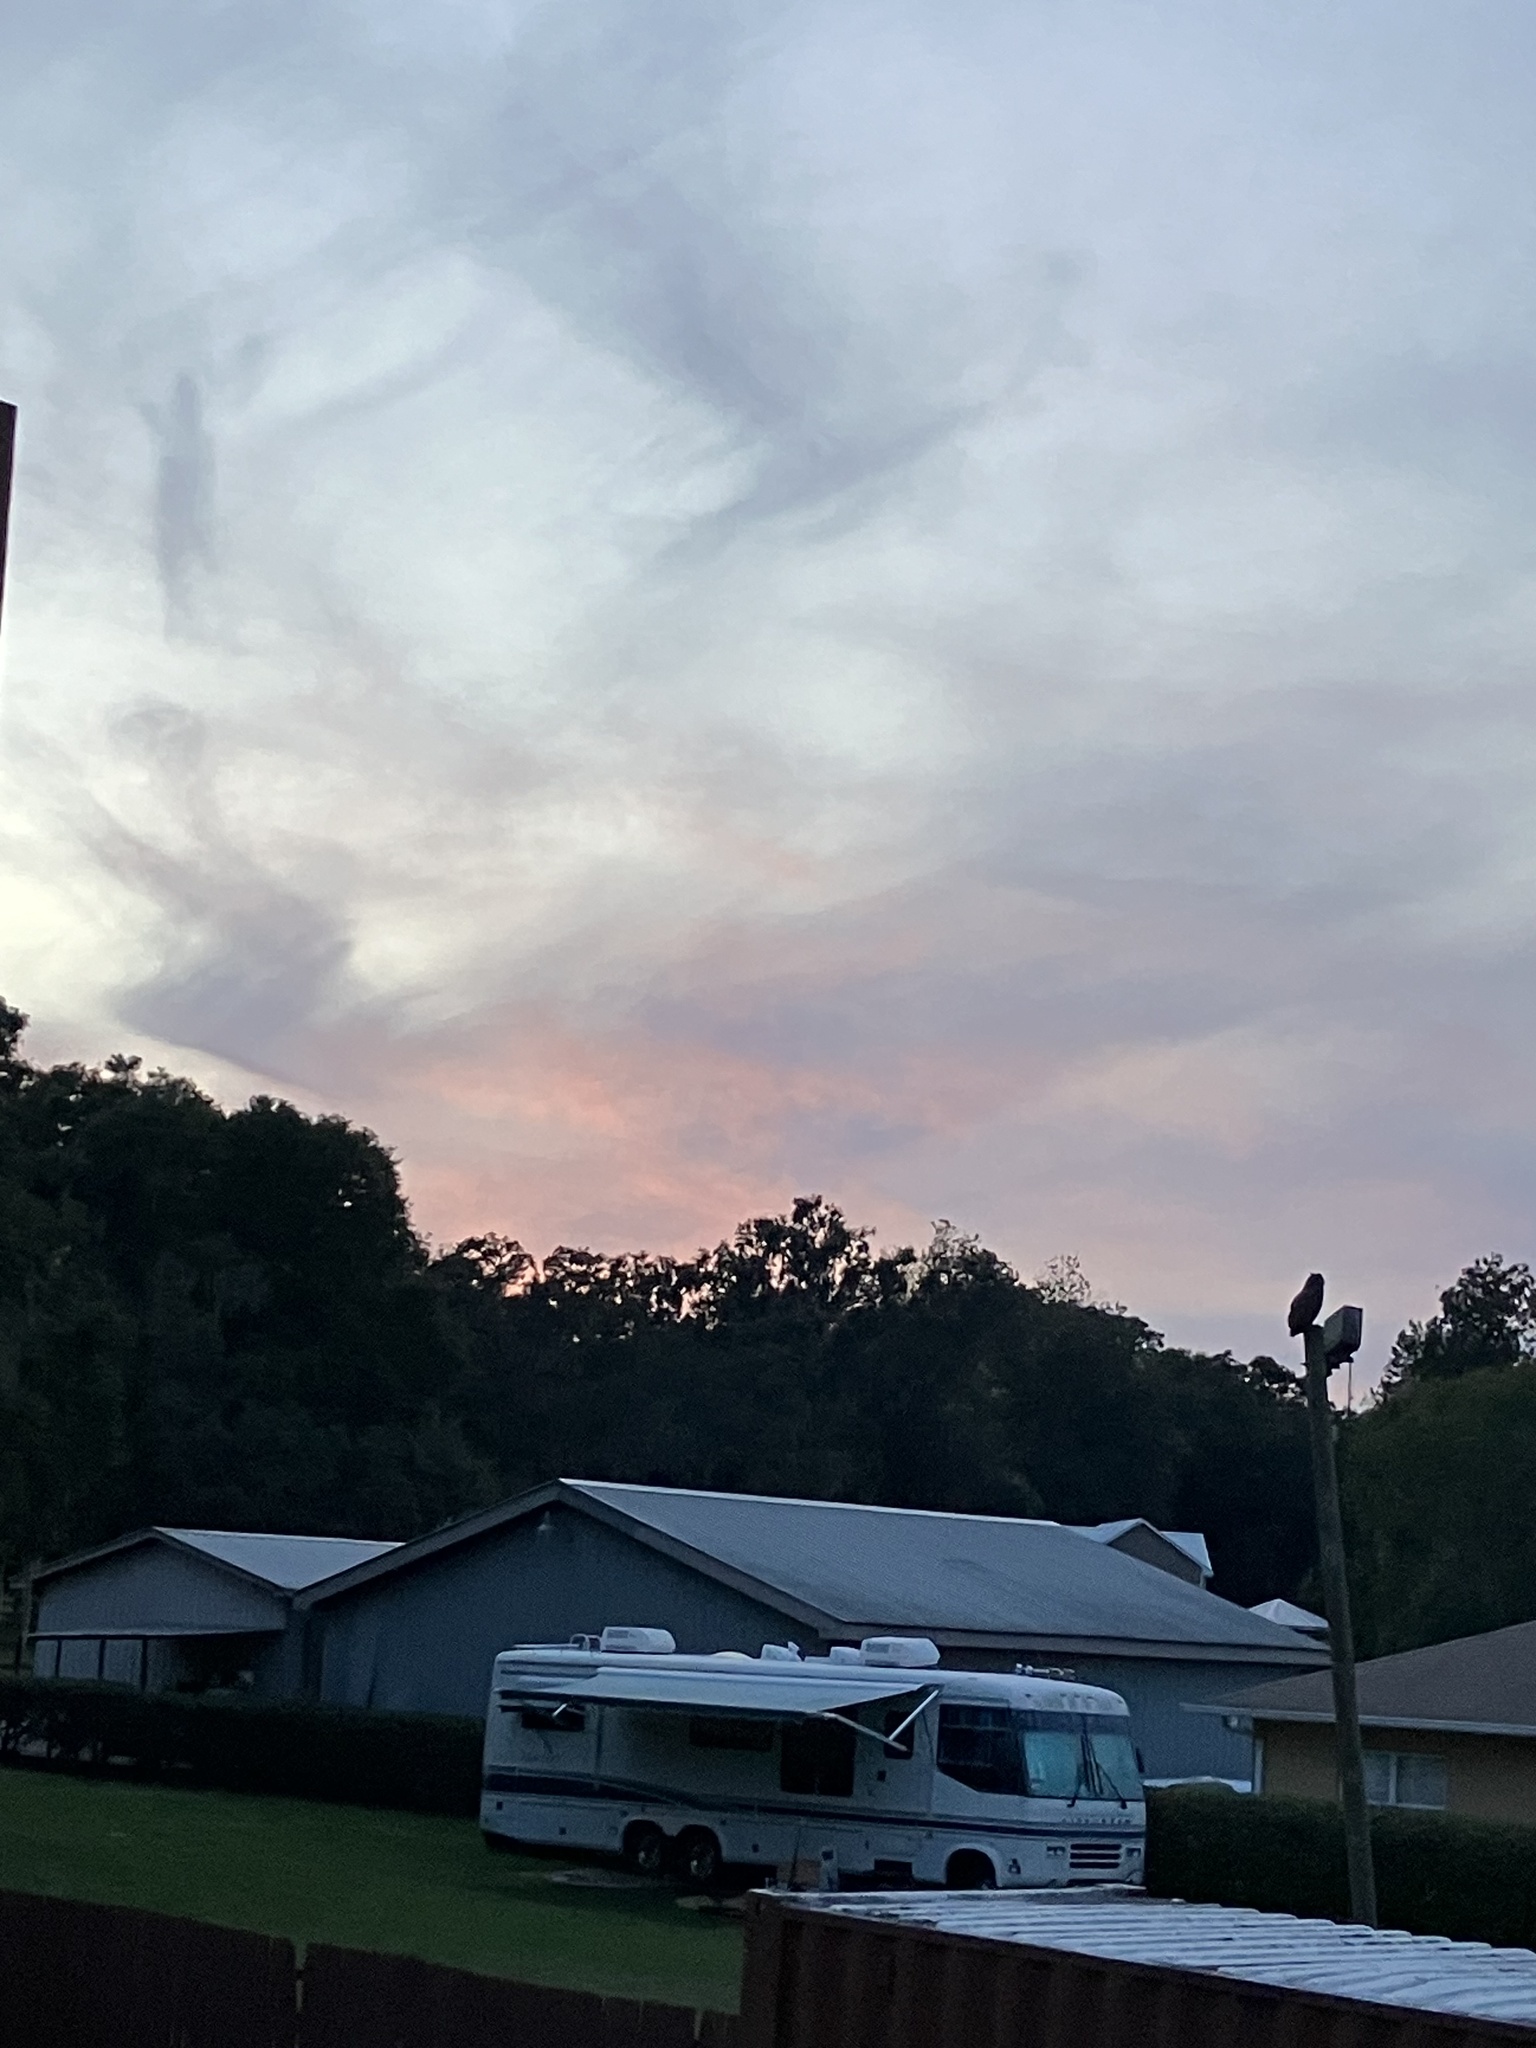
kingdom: Animalia
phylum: Chordata
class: Aves
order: Strigiformes
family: Strigidae
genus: Bubo
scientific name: Bubo virginianus
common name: Great horned owl
